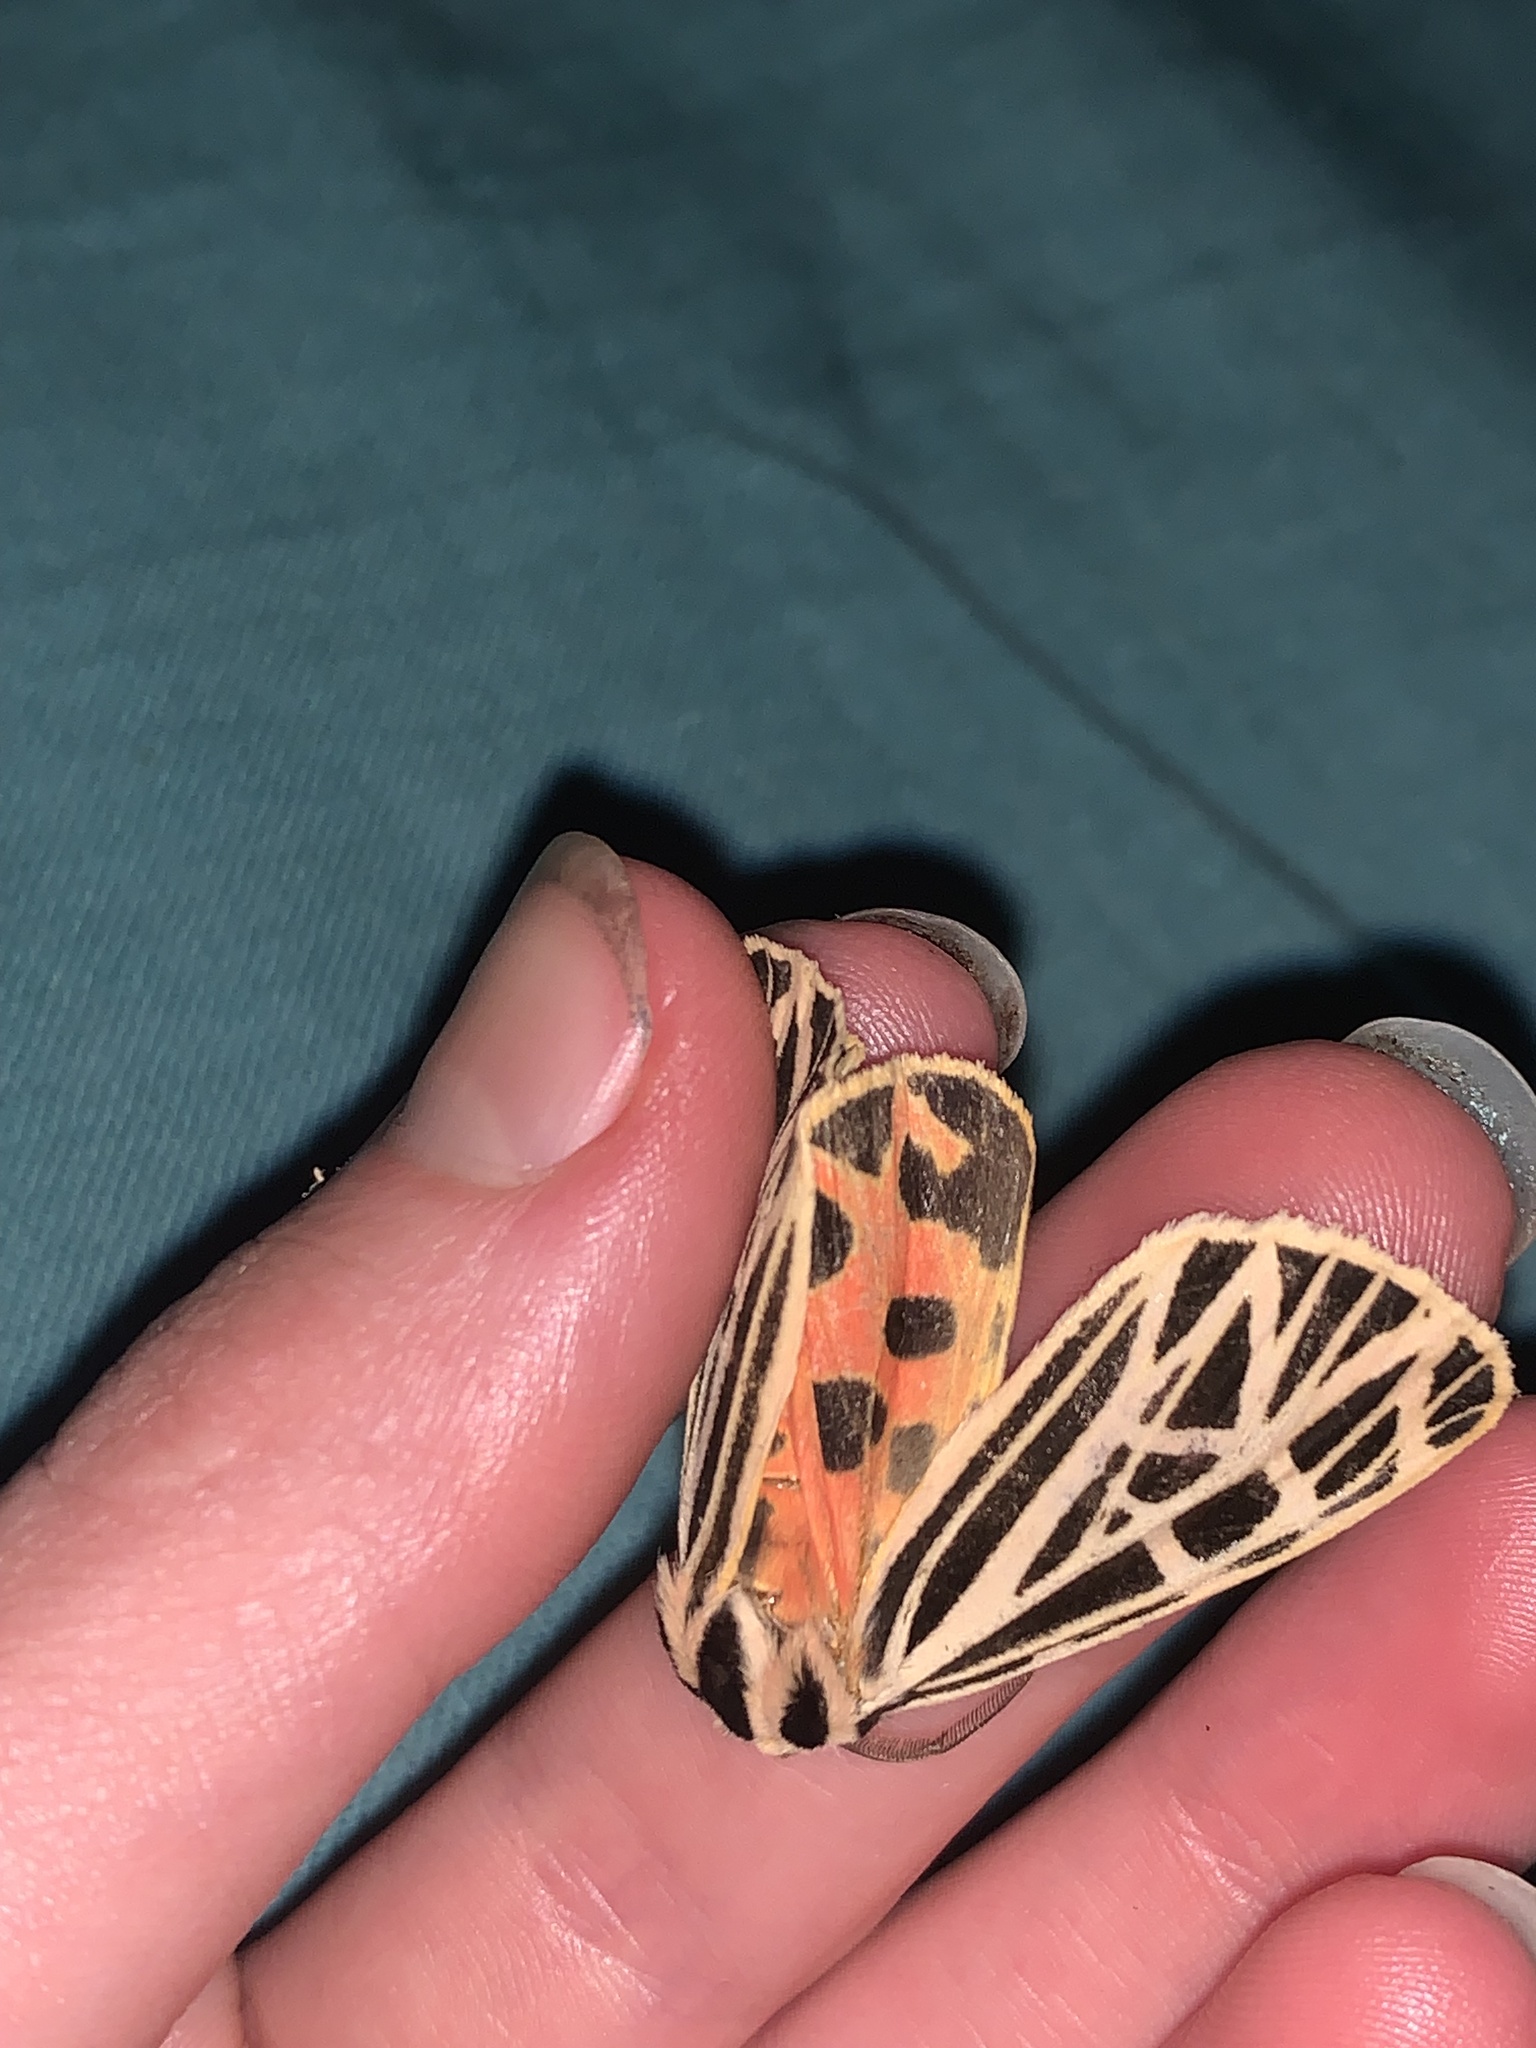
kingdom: Animalia
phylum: Arthropoda
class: Insecta
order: Lepidoptera
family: Erebidae
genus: Grammia
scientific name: Grammia virgo
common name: Virgin tiger moth
